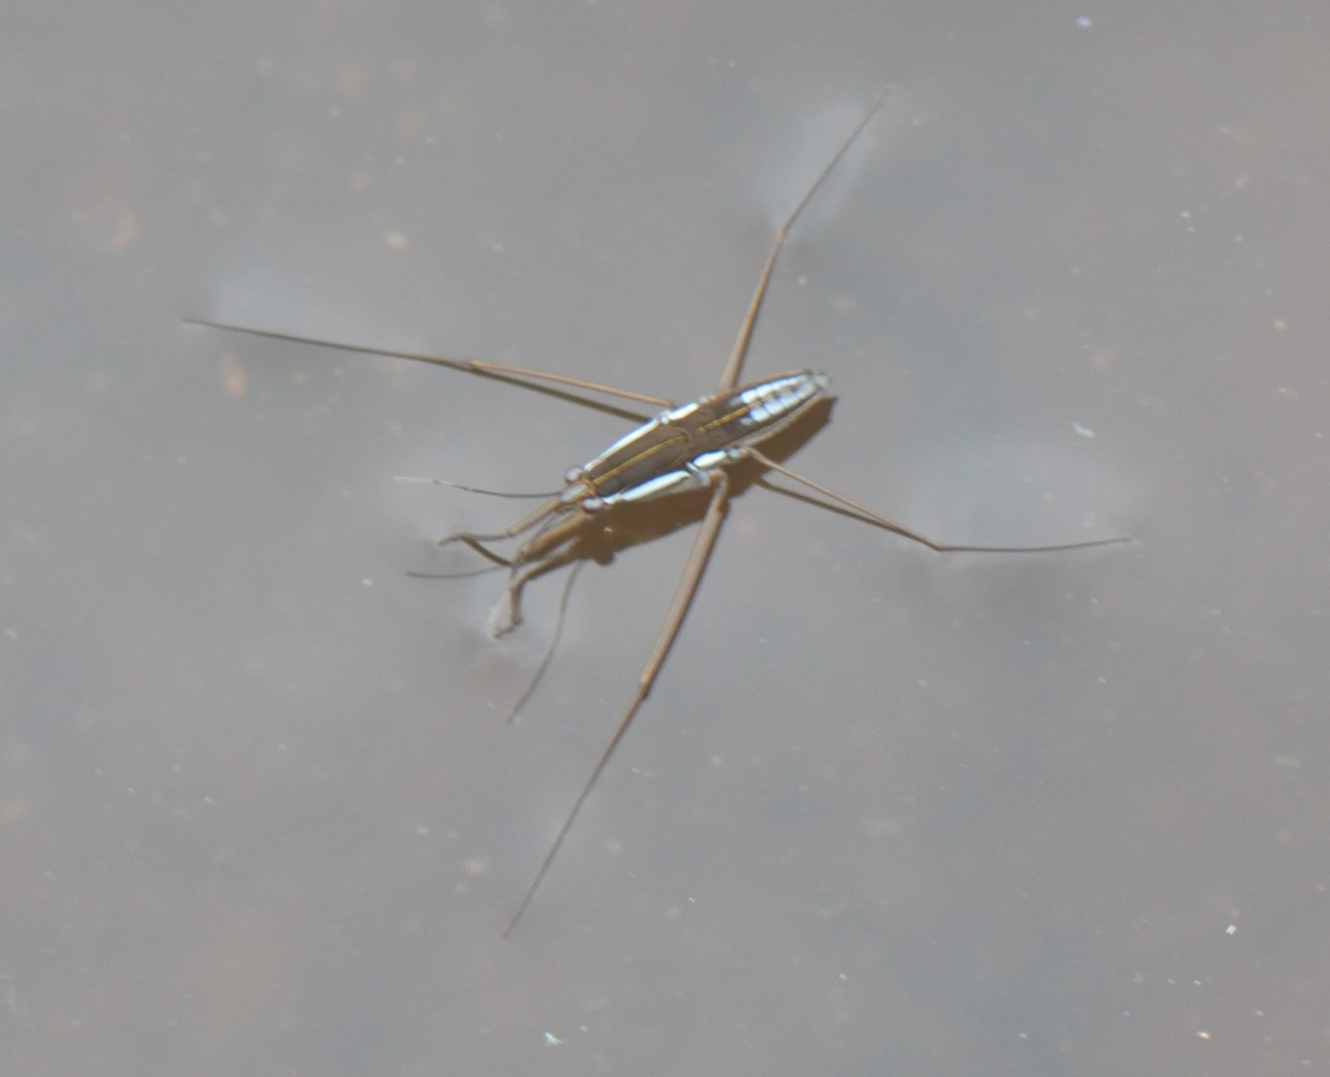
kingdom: Animalia
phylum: Arthropoda
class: Insecta
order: Hemiptera
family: Gerridae
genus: Limnogonoides
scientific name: Limnogonoides
